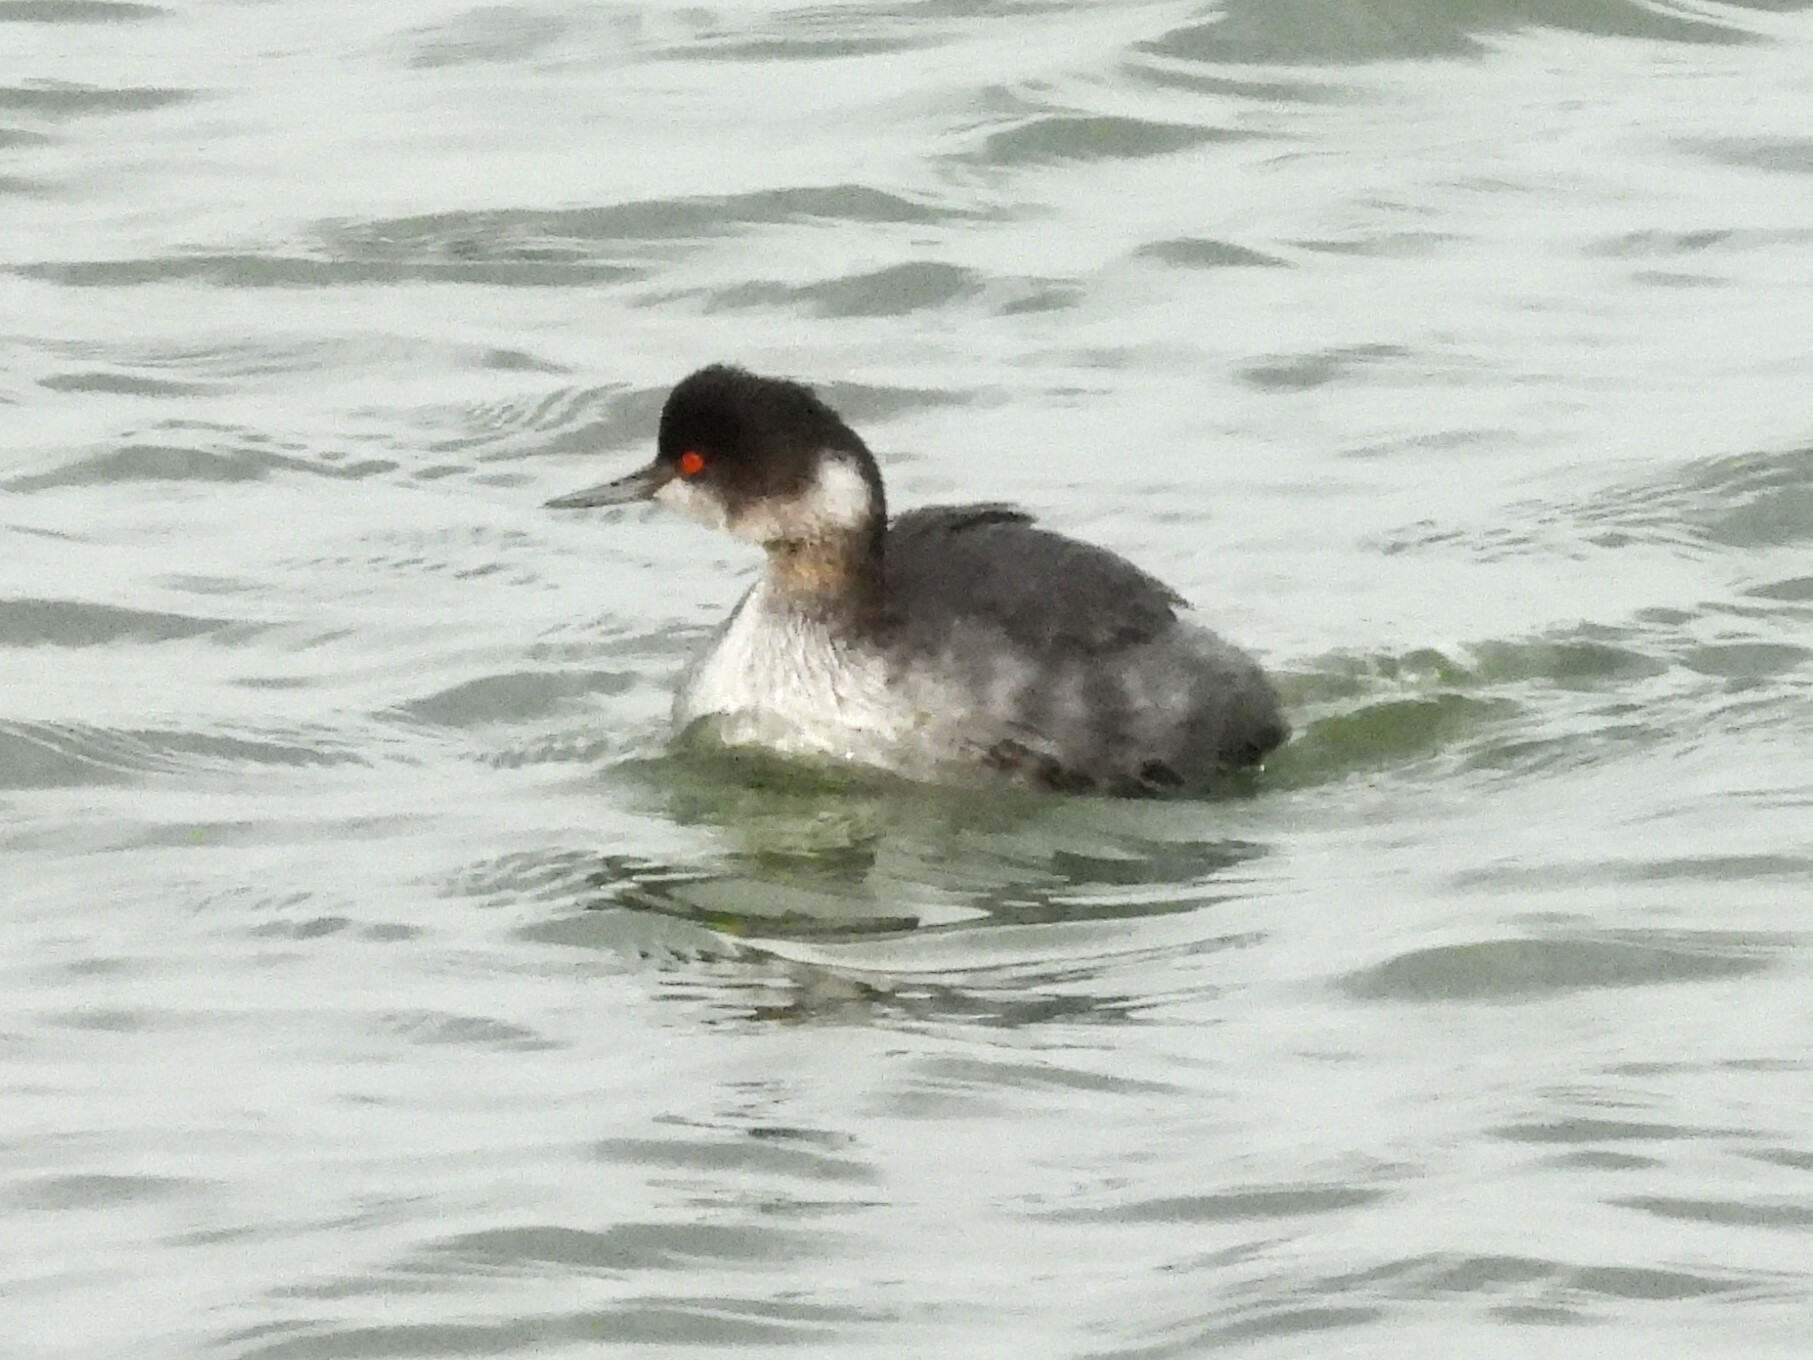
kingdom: Animalia
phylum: Chordata
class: Aves
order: Podicipediformes
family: Podicipedidae
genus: Podiceps
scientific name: Podiceps nigricollis
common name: Black-necked grebe
